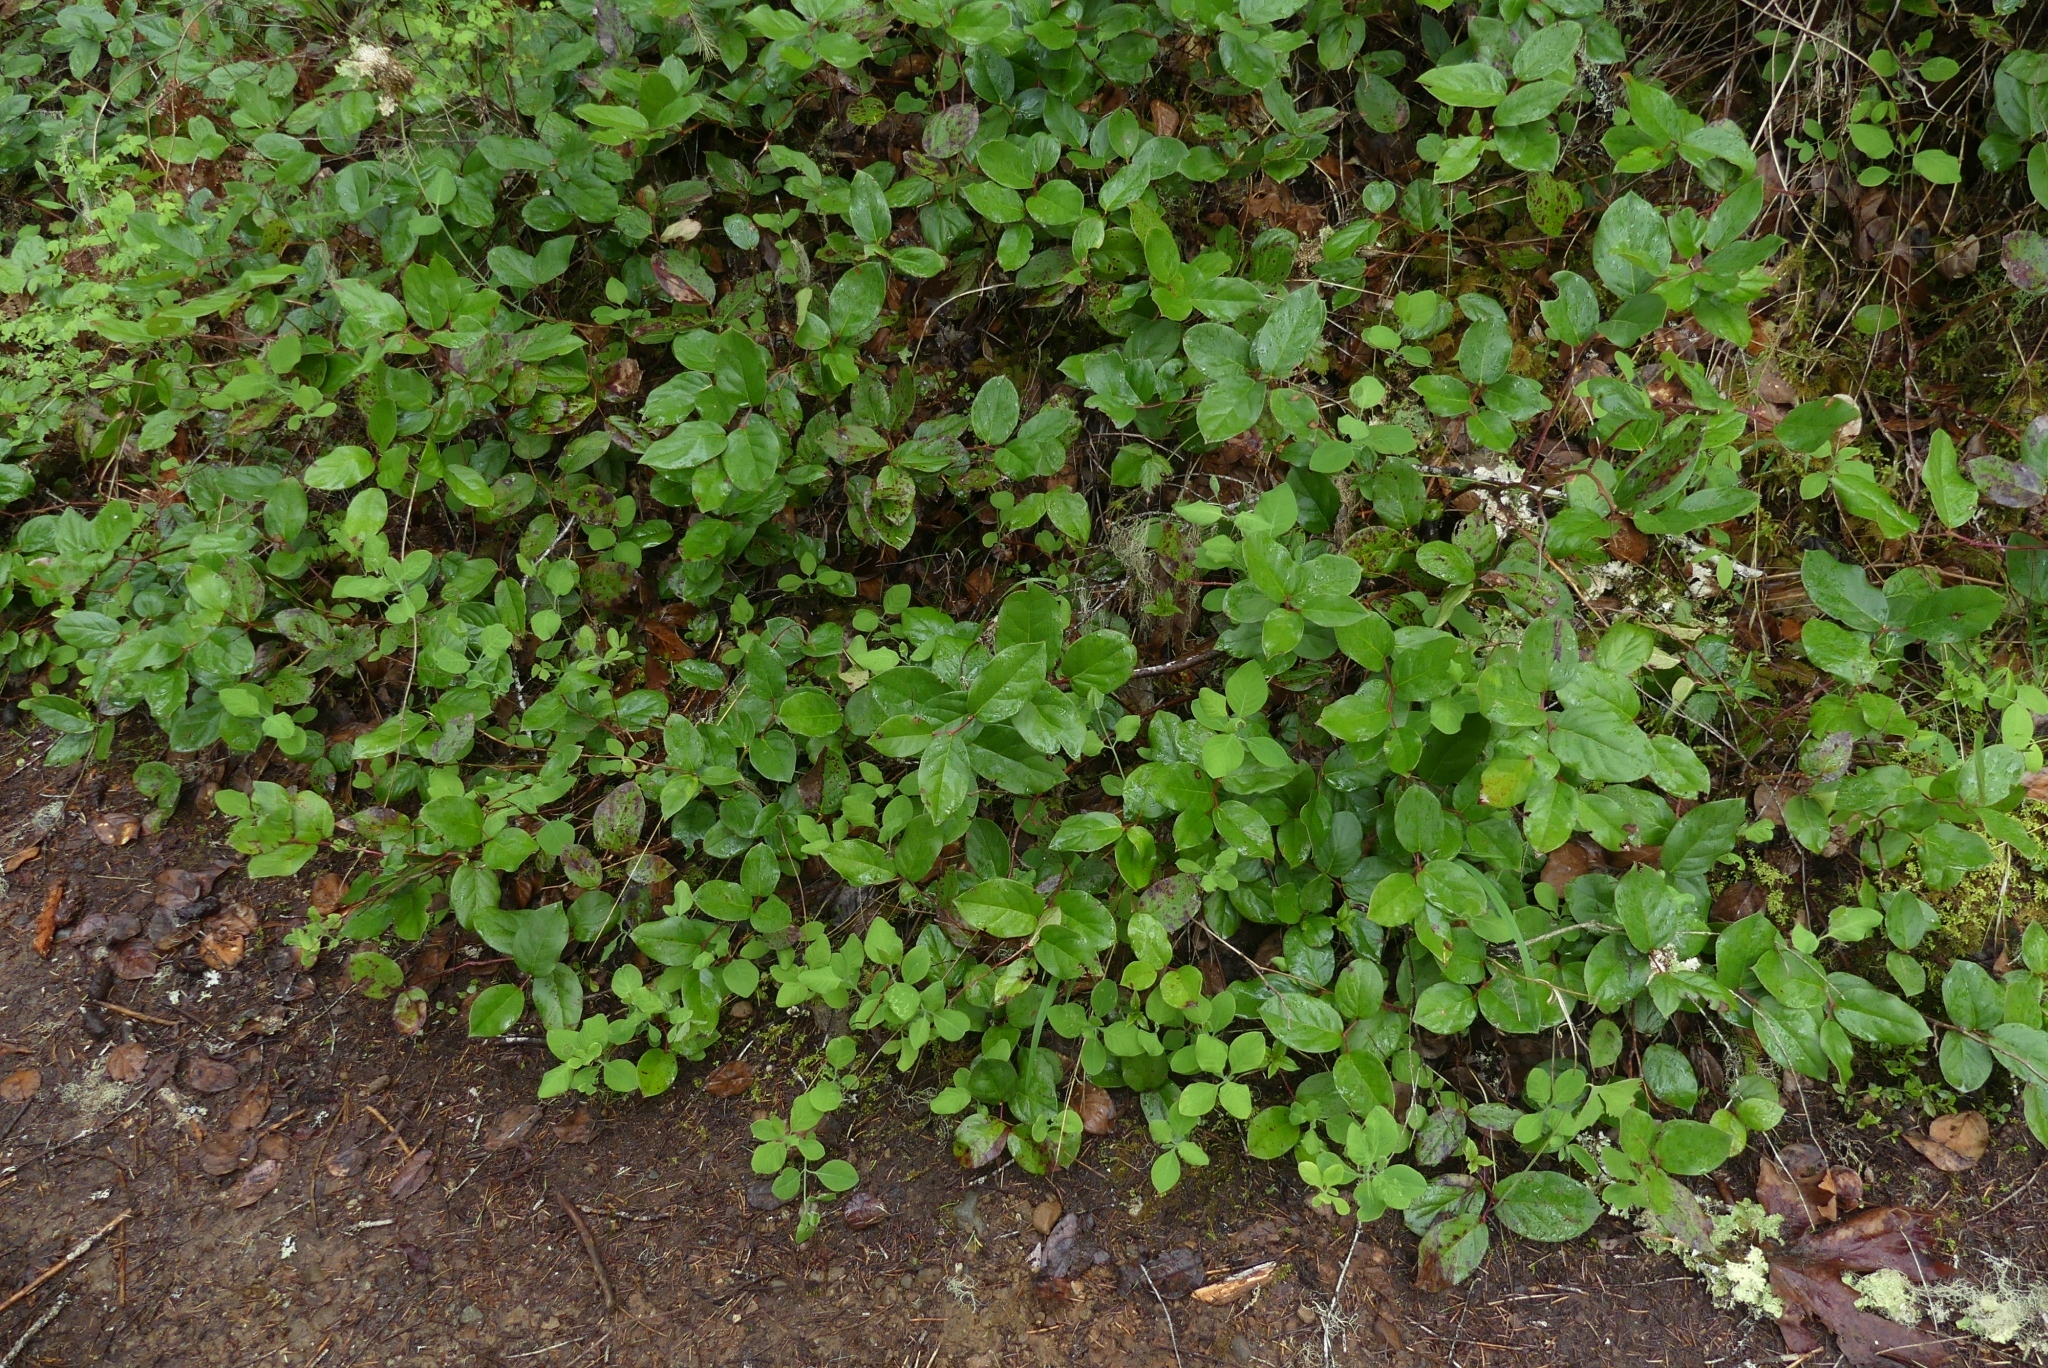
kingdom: Plantae
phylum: Tracheophyta
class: Magnoliopsida
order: Ericales
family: Ericaceae
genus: Gaultheria
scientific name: Gaultheria shallon
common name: Shallon
